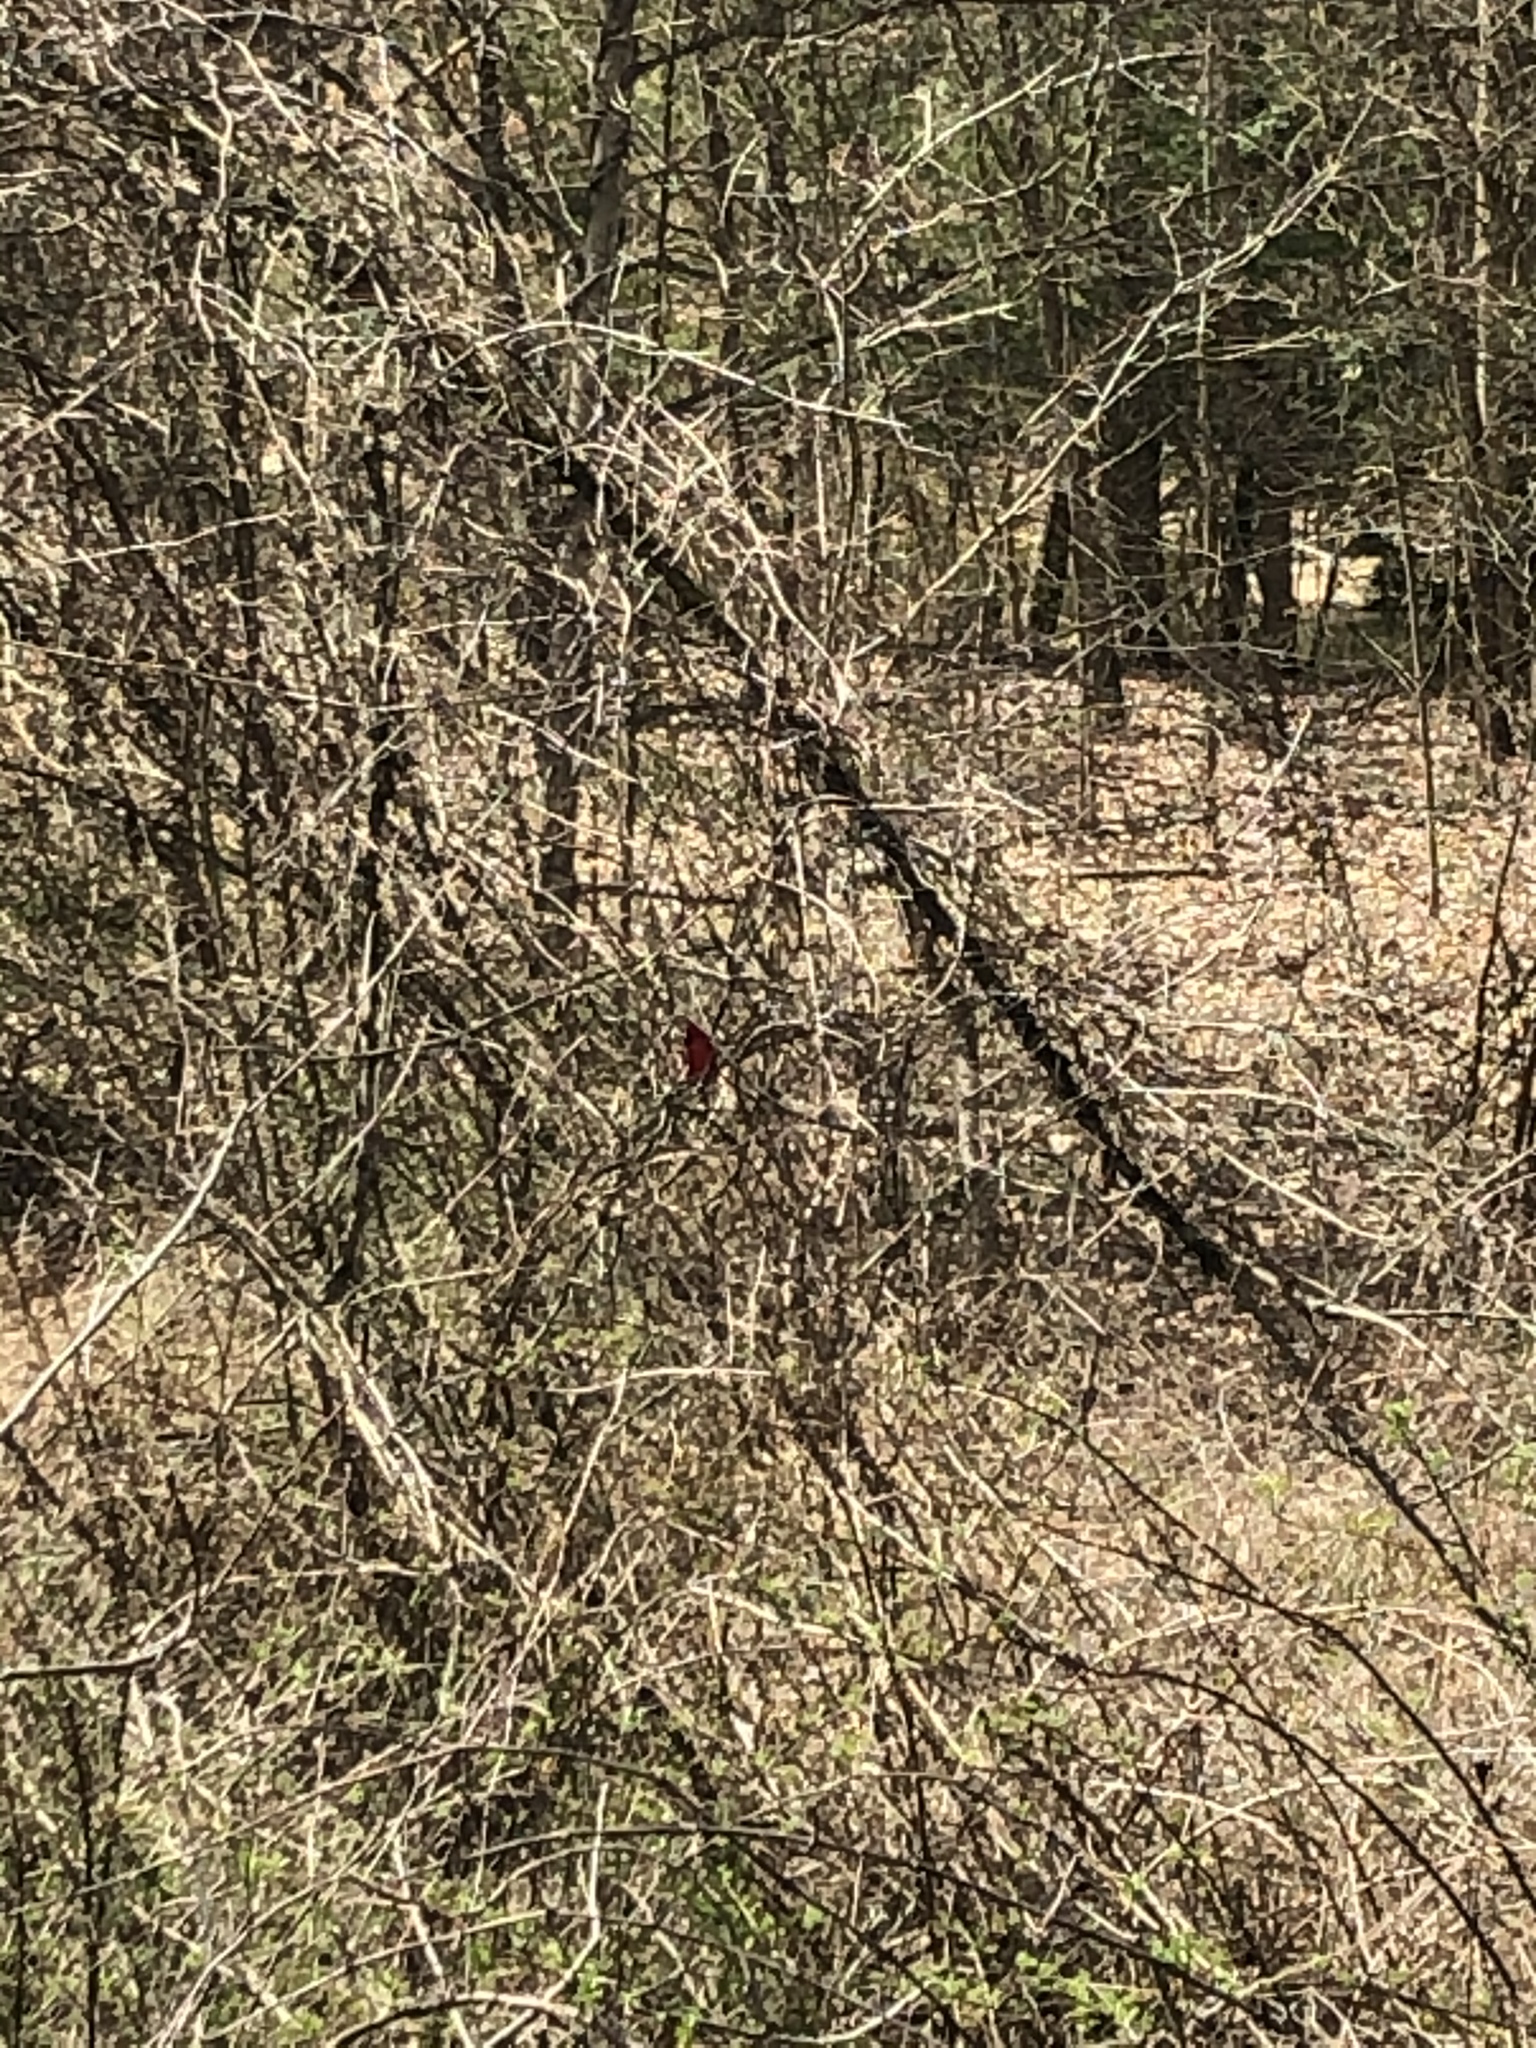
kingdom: Animalia
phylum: Chordata
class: Aves
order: Passeriformes
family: Cardinalidae
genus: Cardinalis
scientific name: Cardinalis cardinalis
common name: Northern cardinal
